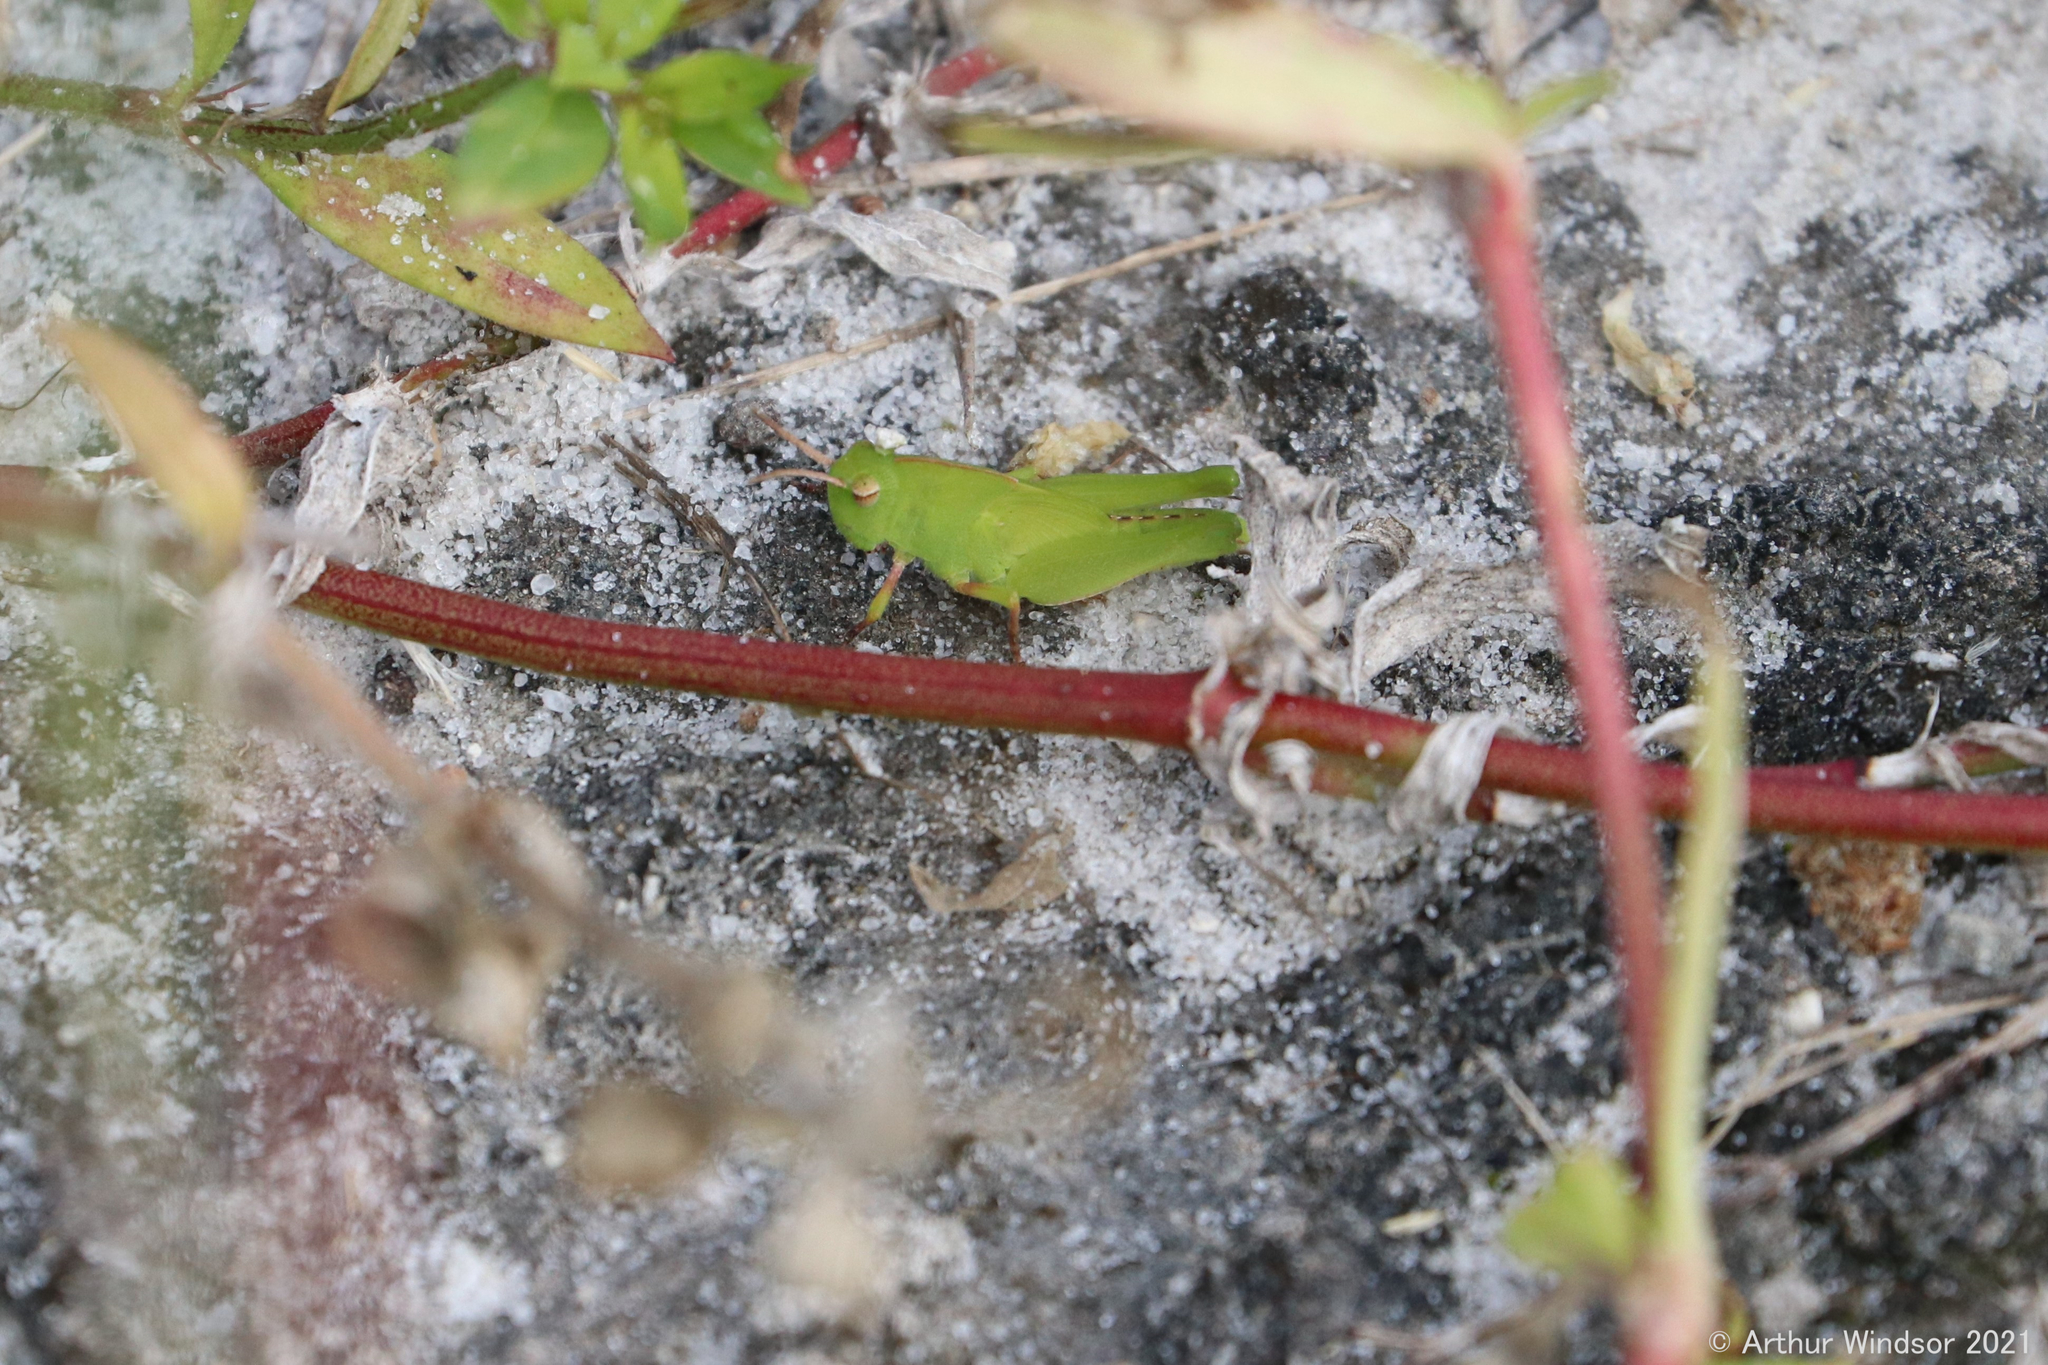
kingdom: Animalia
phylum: Arthropoda
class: Insecta
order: Orthoptera
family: Acrididae
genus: Chortophaga
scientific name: Chortophaga australior
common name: Southern green-striped grasshopper
